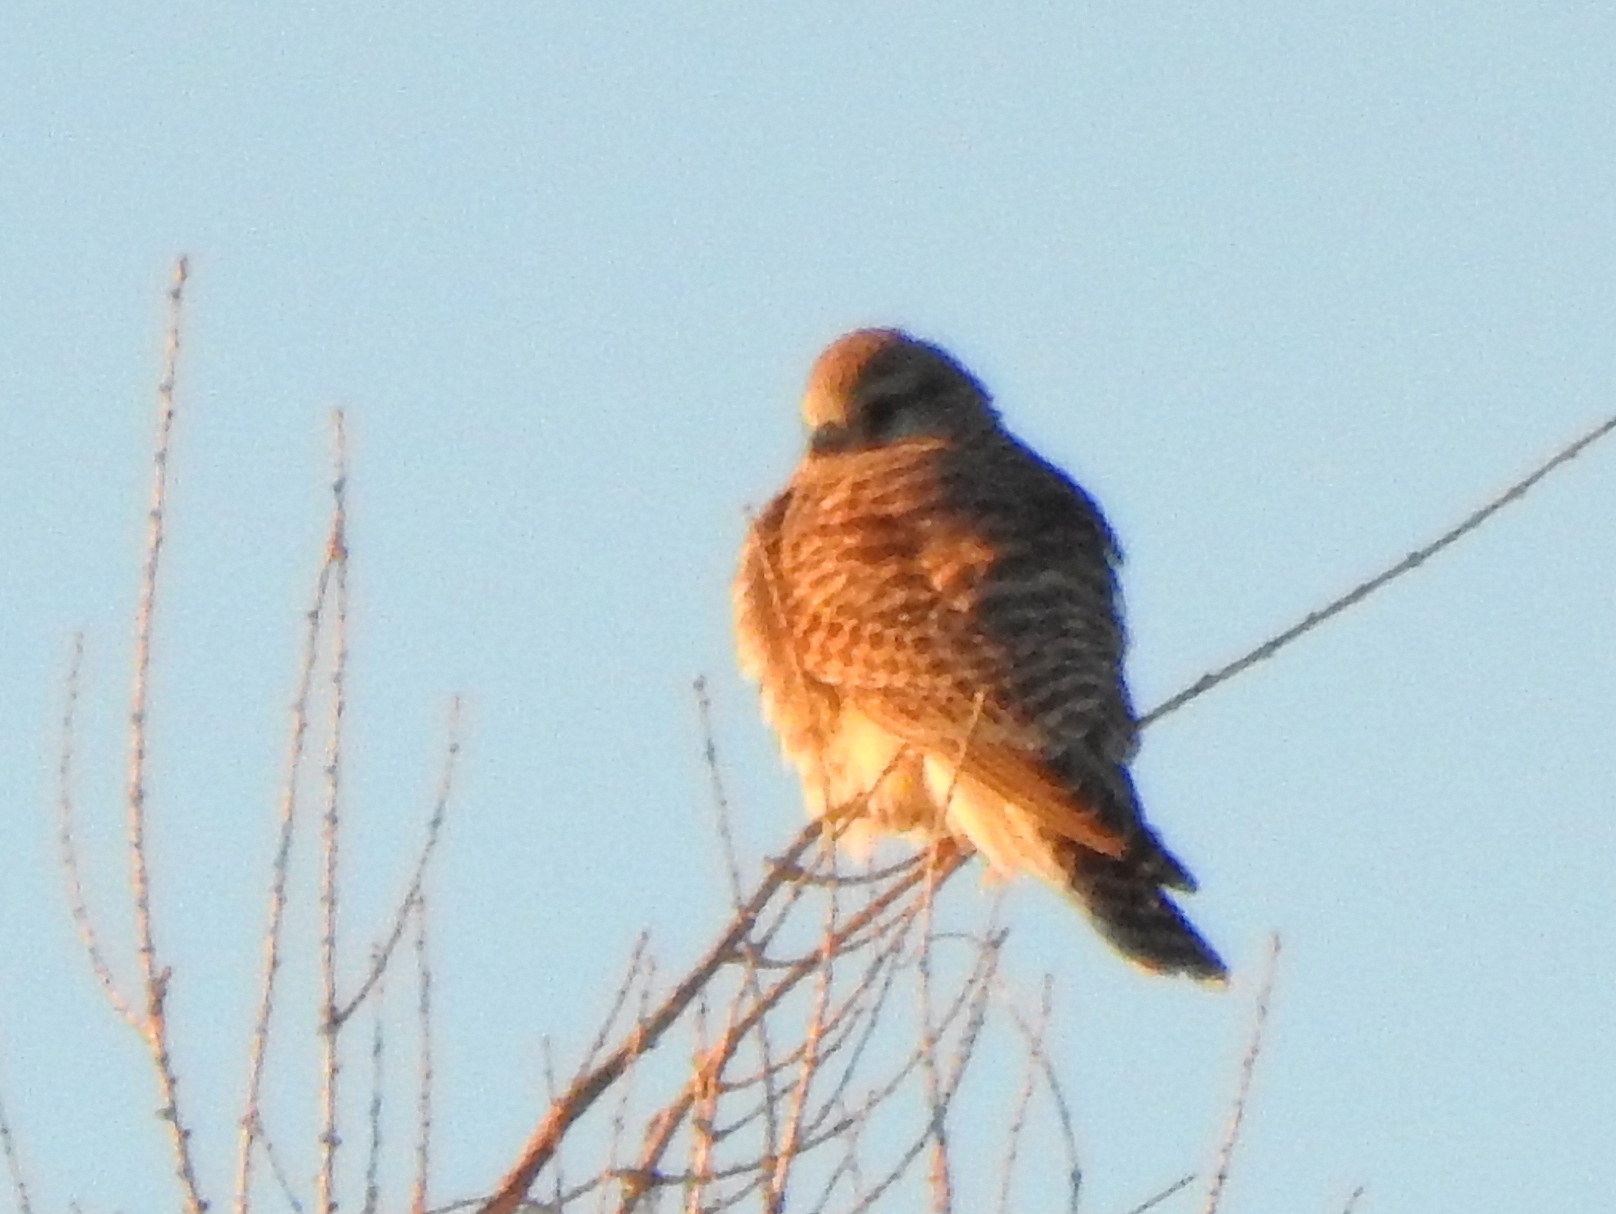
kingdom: Animalia
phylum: Chordata
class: Aves
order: Falconiformes
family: Falconidae
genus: Falco
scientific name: Falco tinnunculus
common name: Common kestrel
